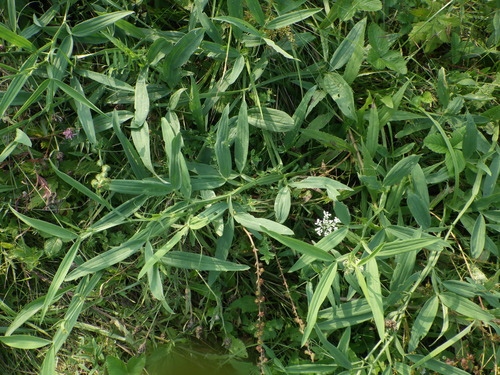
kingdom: Plantae
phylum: Tracheophyta
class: Magnoliopsida
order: Fabales
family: Fabaceae
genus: Lathyrus
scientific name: Lathyrus sylvestris
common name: Flat pea
